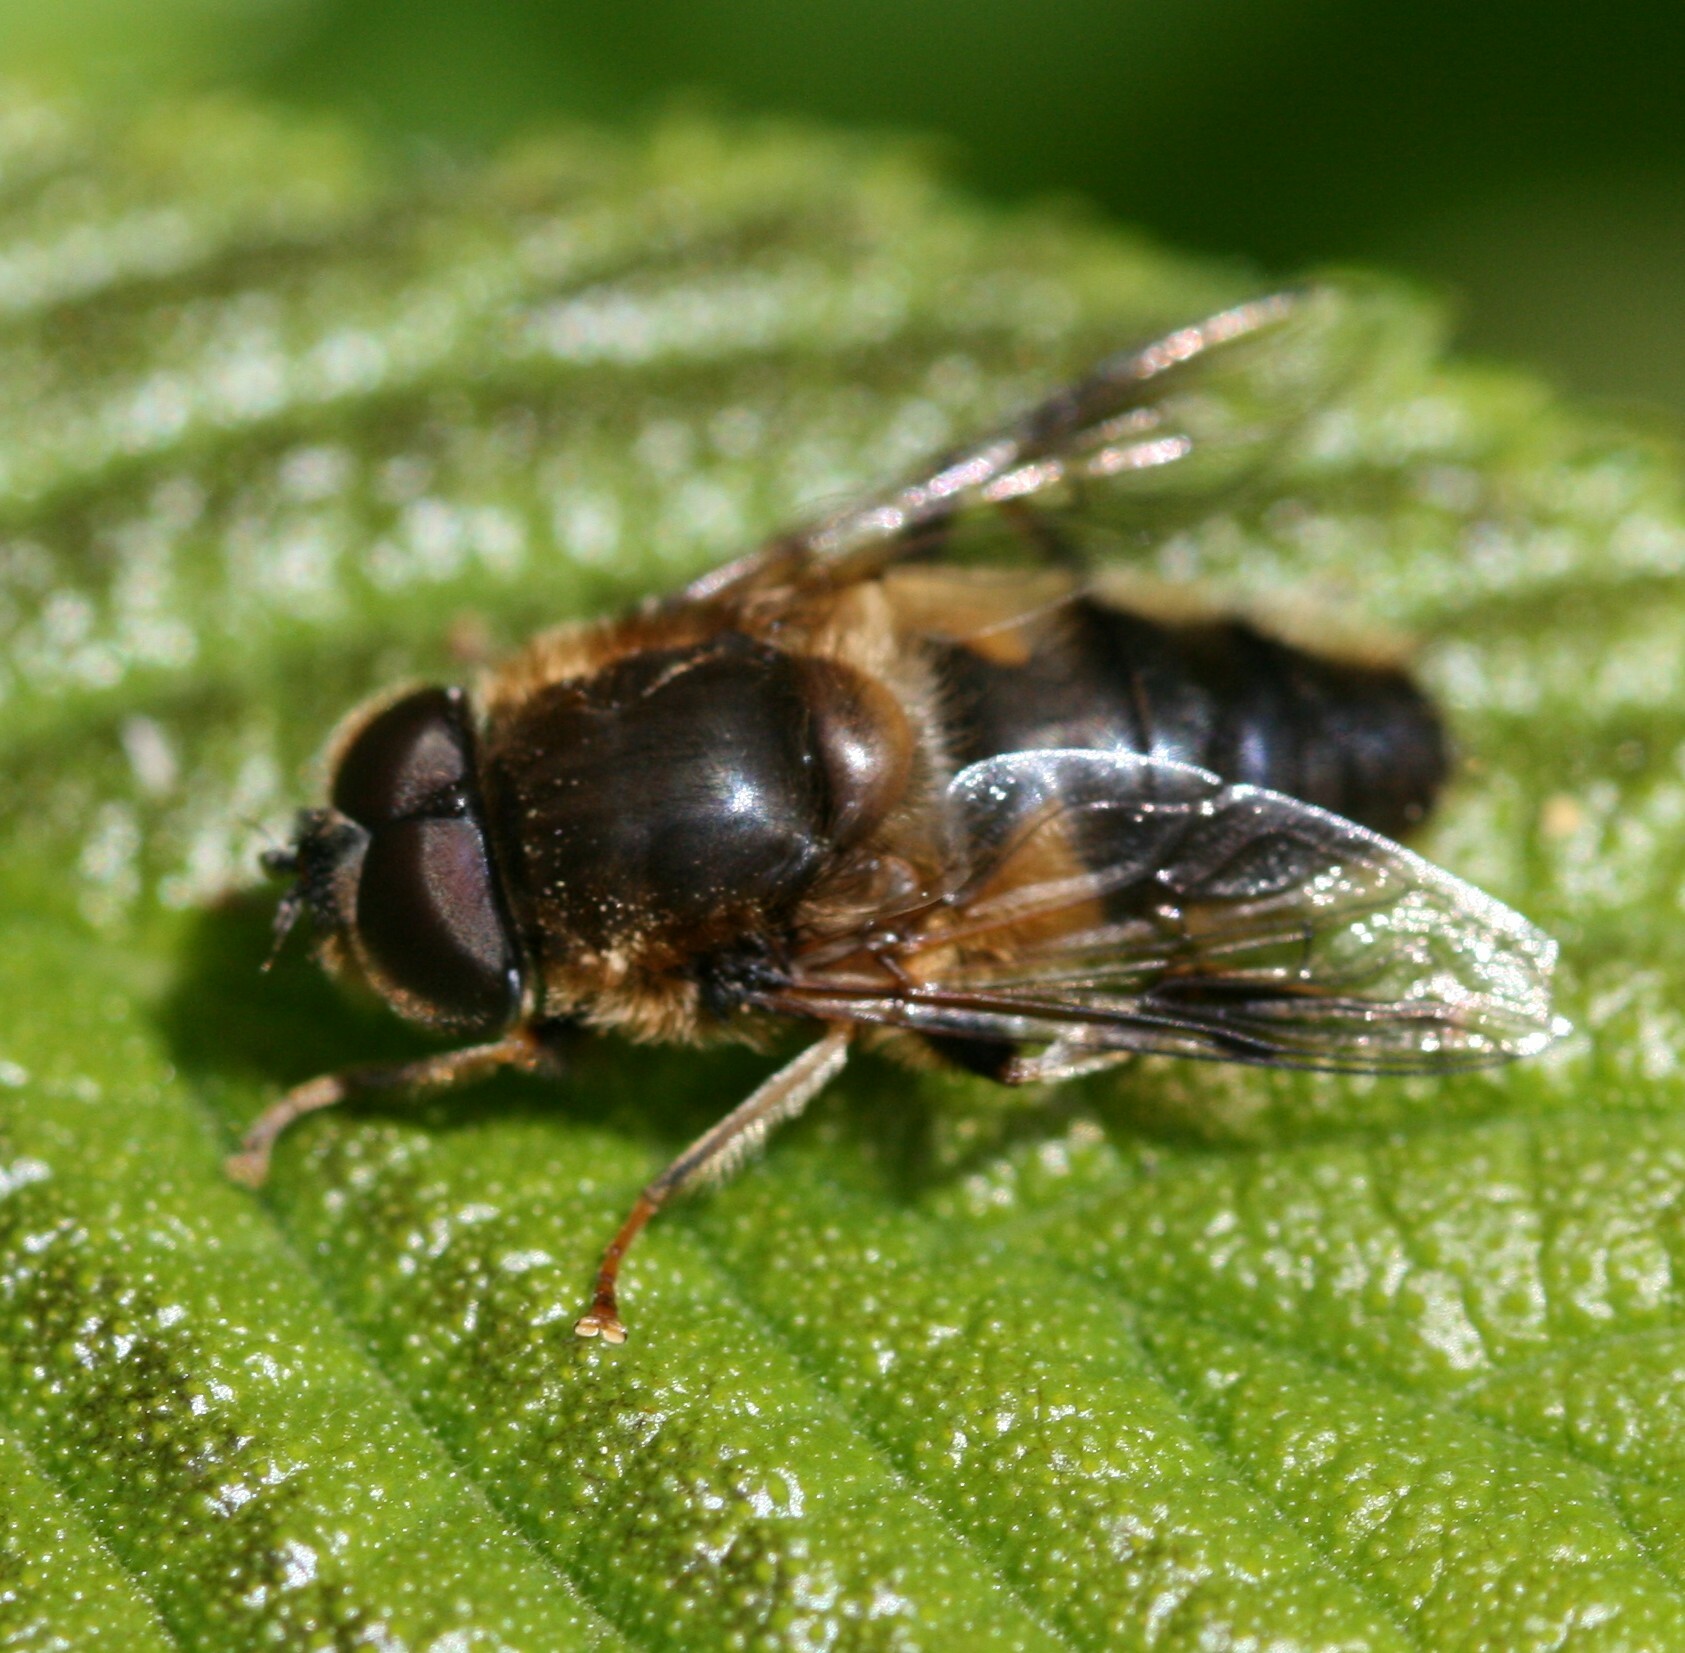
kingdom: Animalia
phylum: Arthropoda
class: Insecta
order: Diptera
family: Syrphidae
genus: Eristalis
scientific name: Eristalis pertinax
